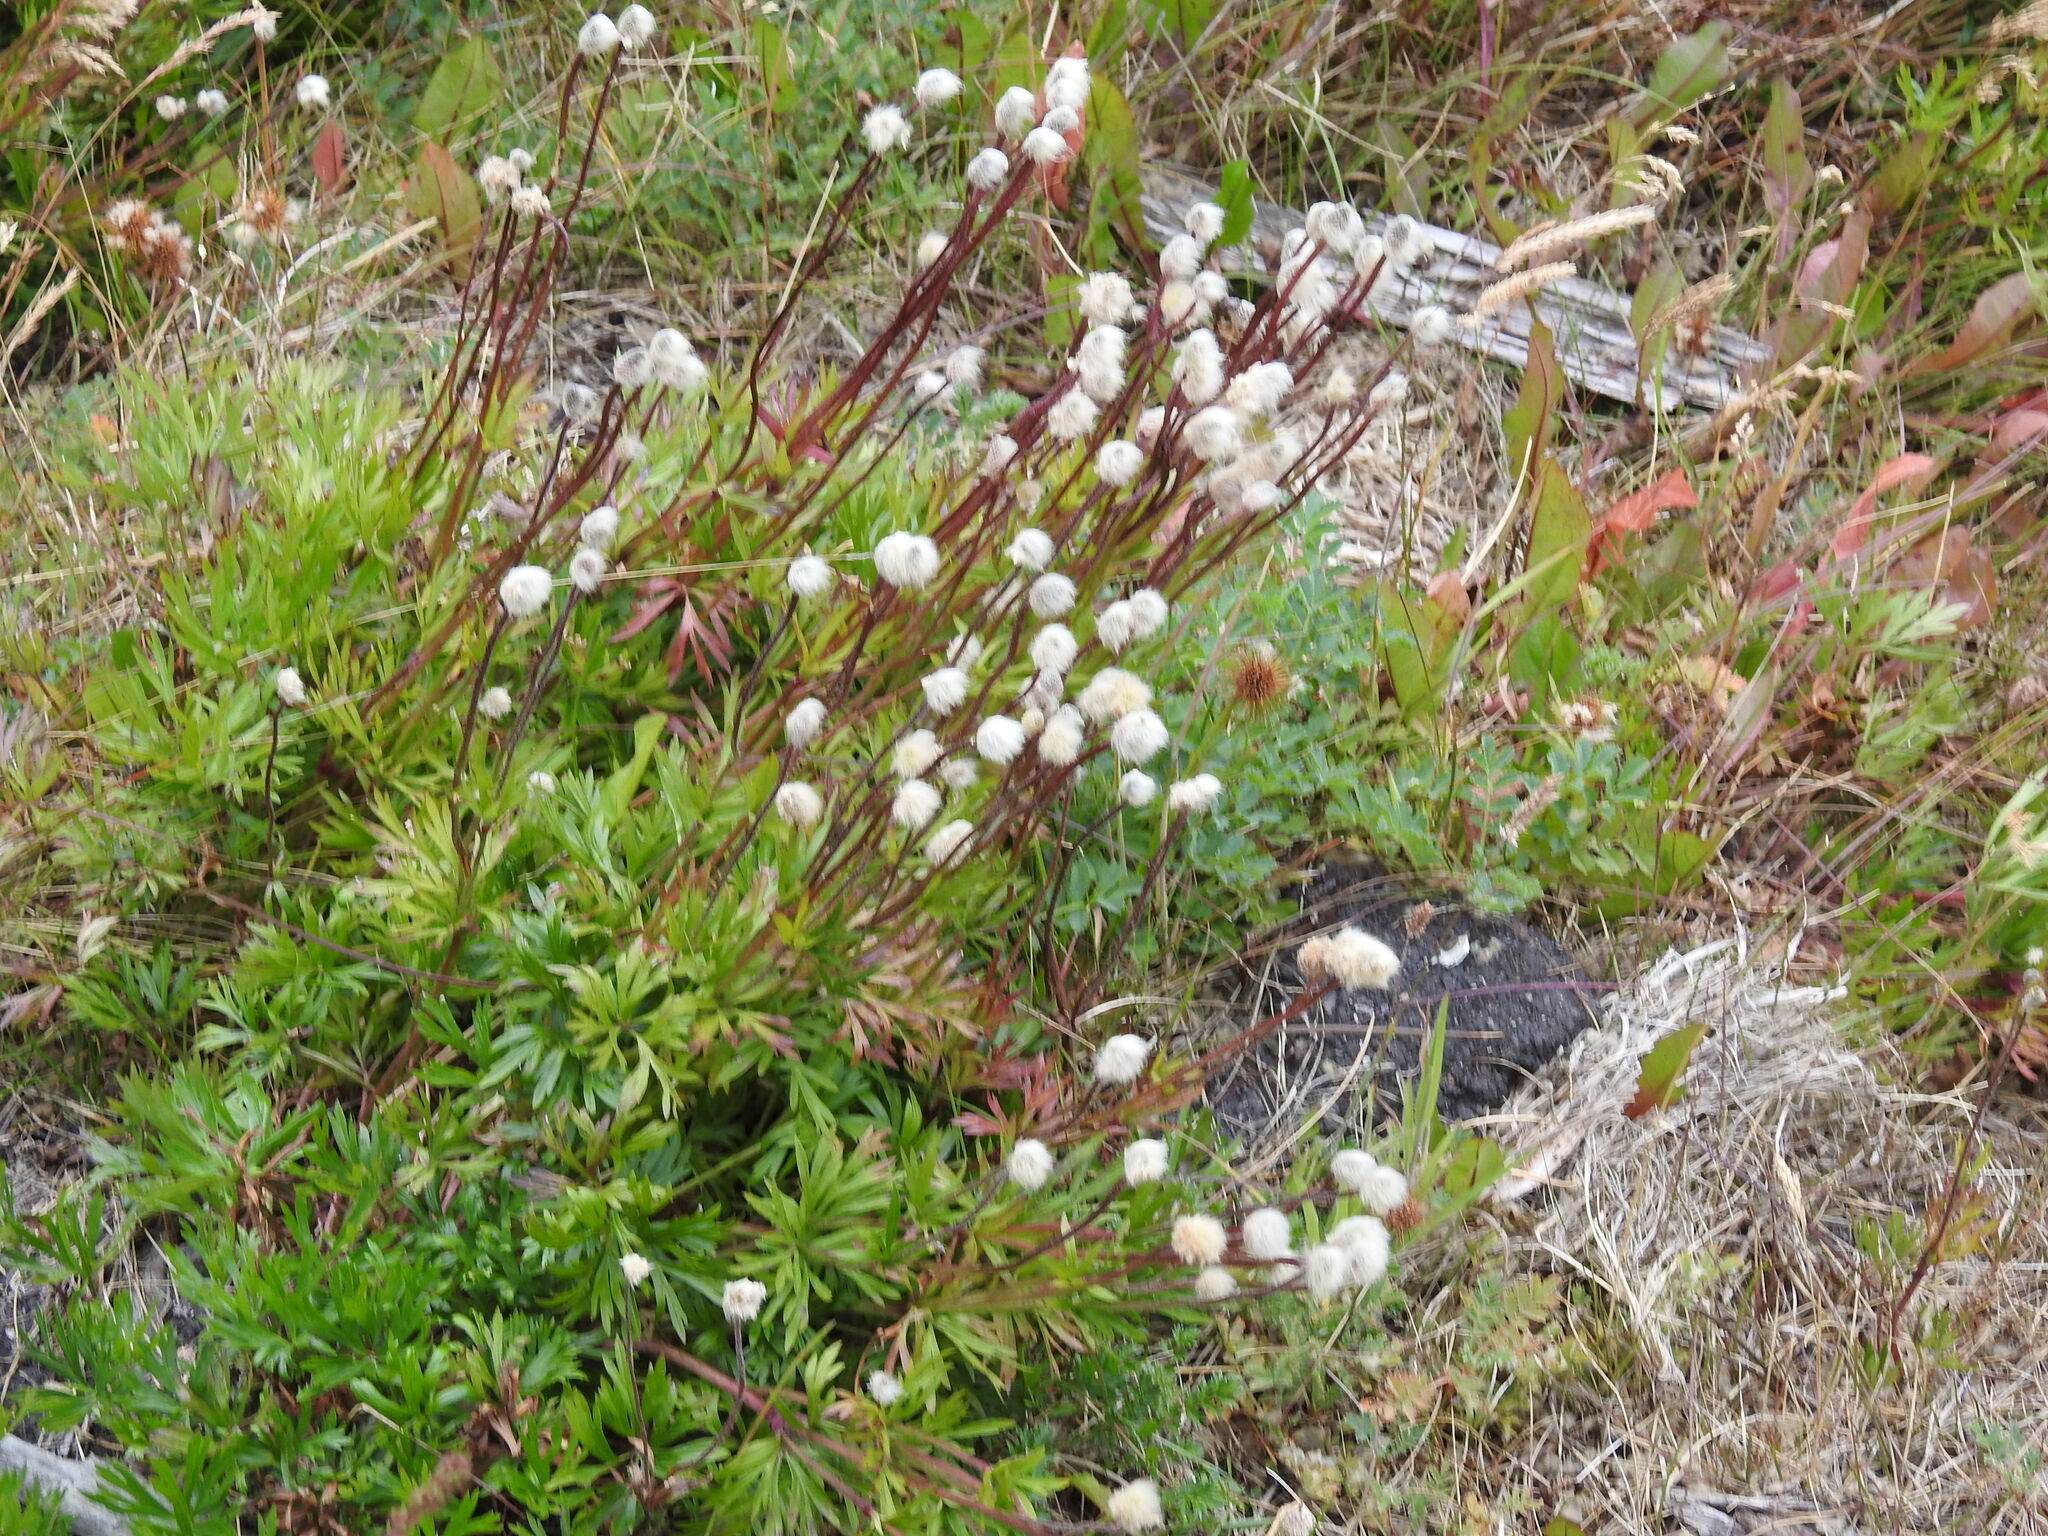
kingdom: Plantae
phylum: Tracheophyta
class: Magnoliopsida
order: Ranunculales
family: Ranunculaceae
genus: Anemone
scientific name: Anemone multifida
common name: Bird's-foot anemone
